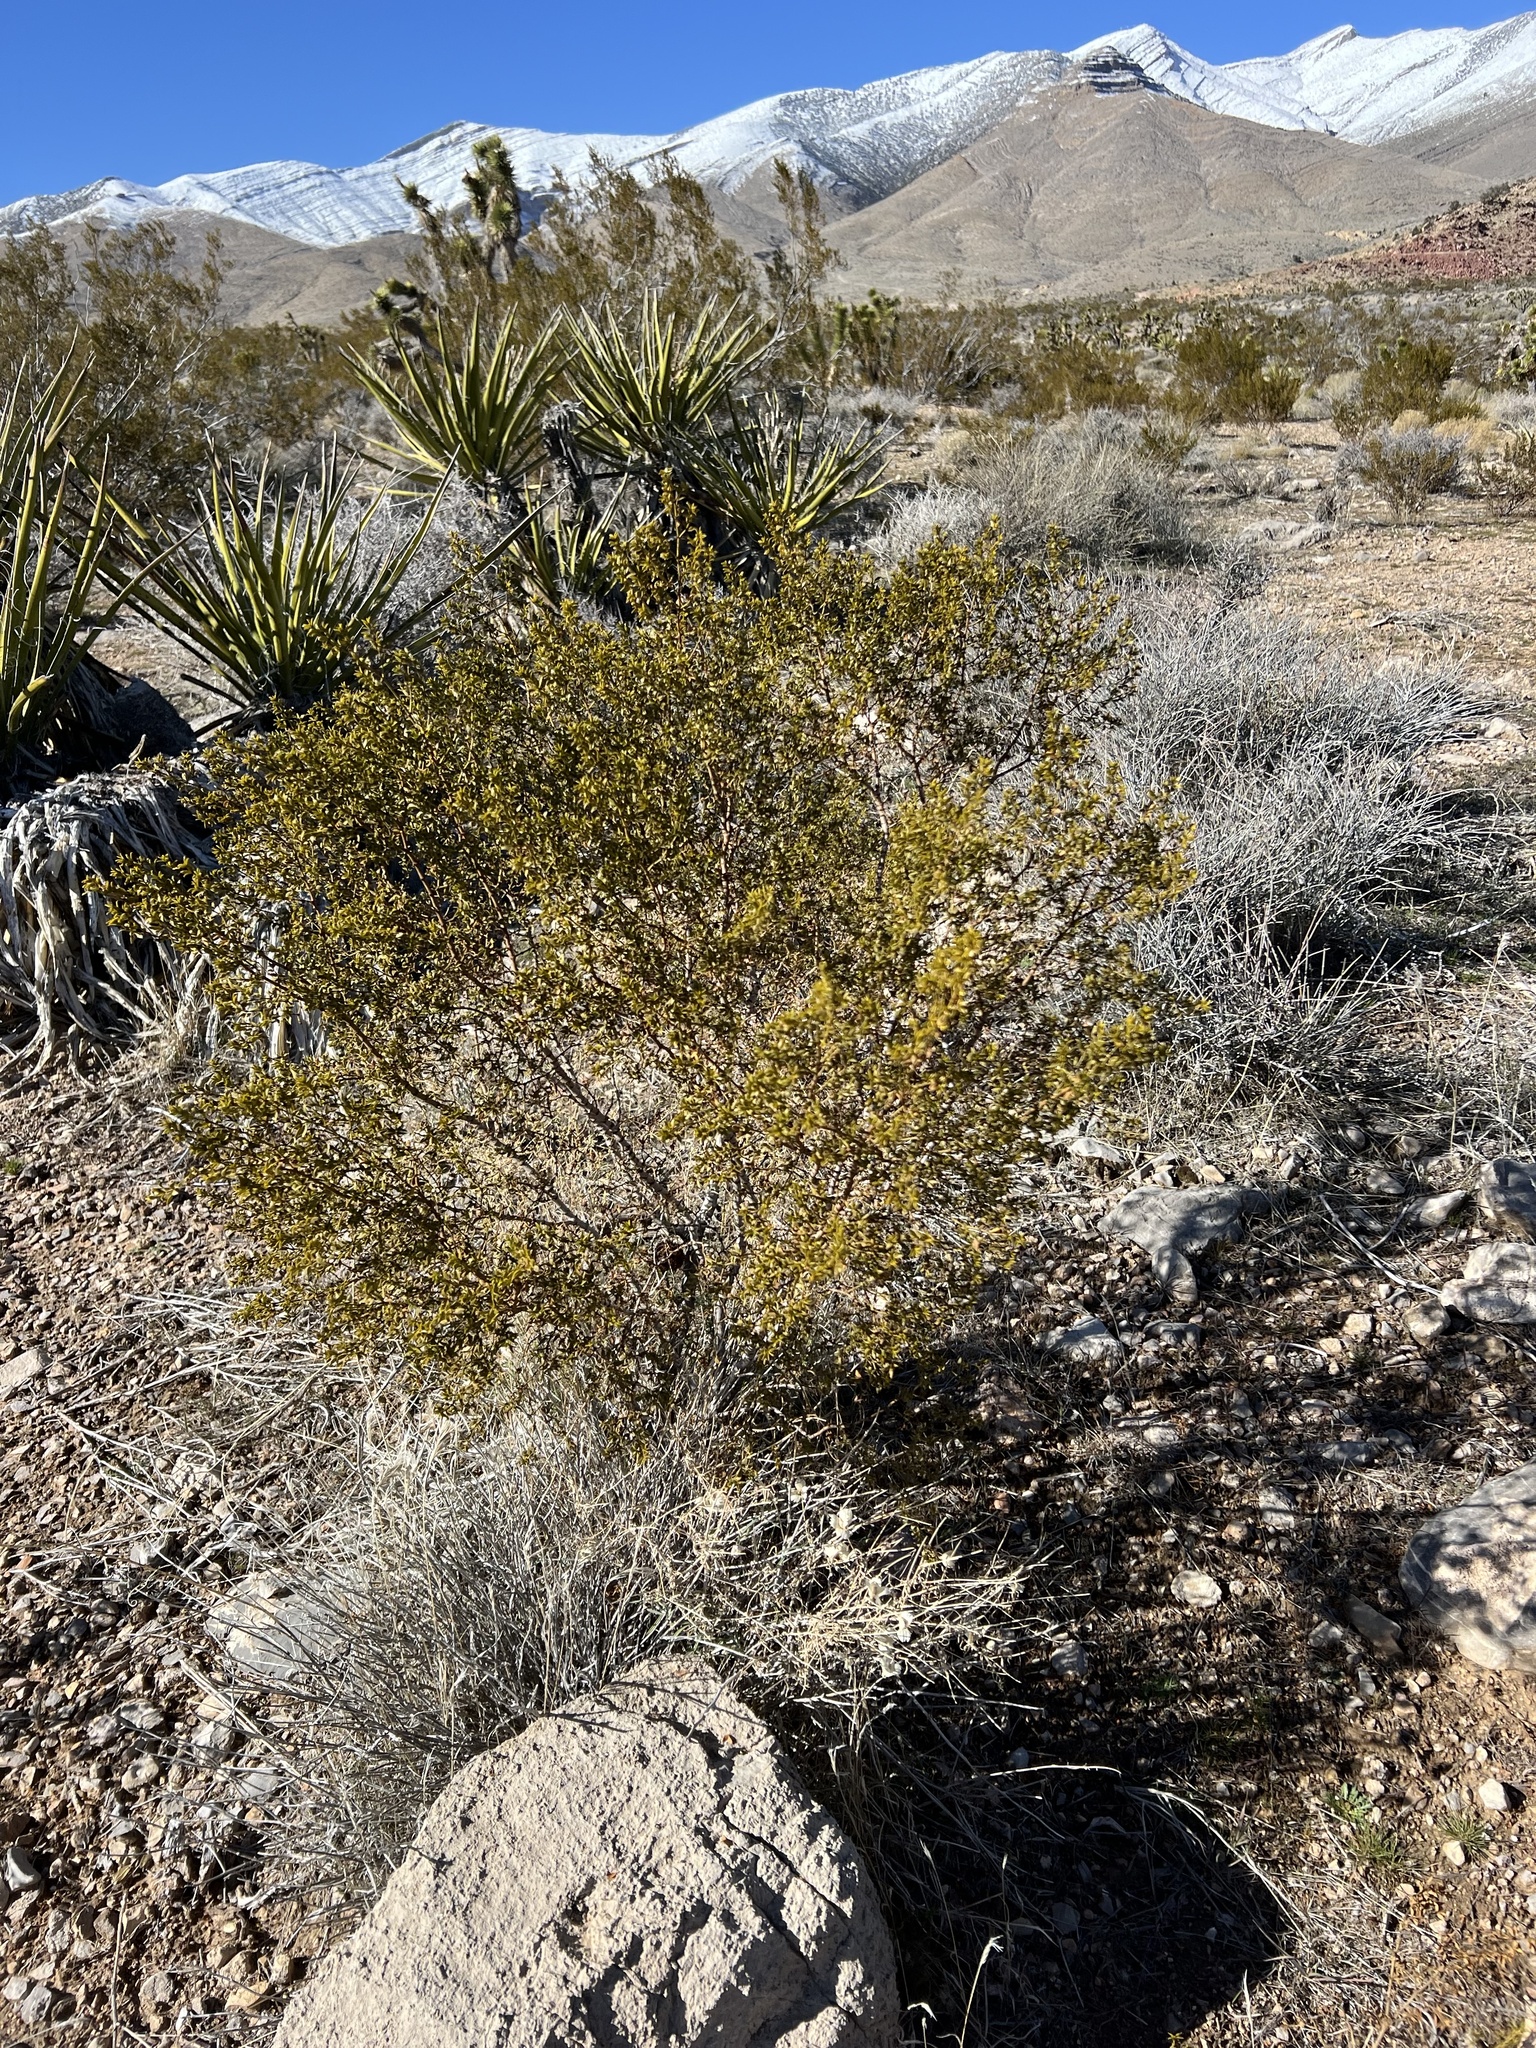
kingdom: Plantae
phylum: Tracheophyta
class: Magnoliopsida
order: Zygophyllales
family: Zygophyllaceae
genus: Larrea
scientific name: Larrea tridentata
